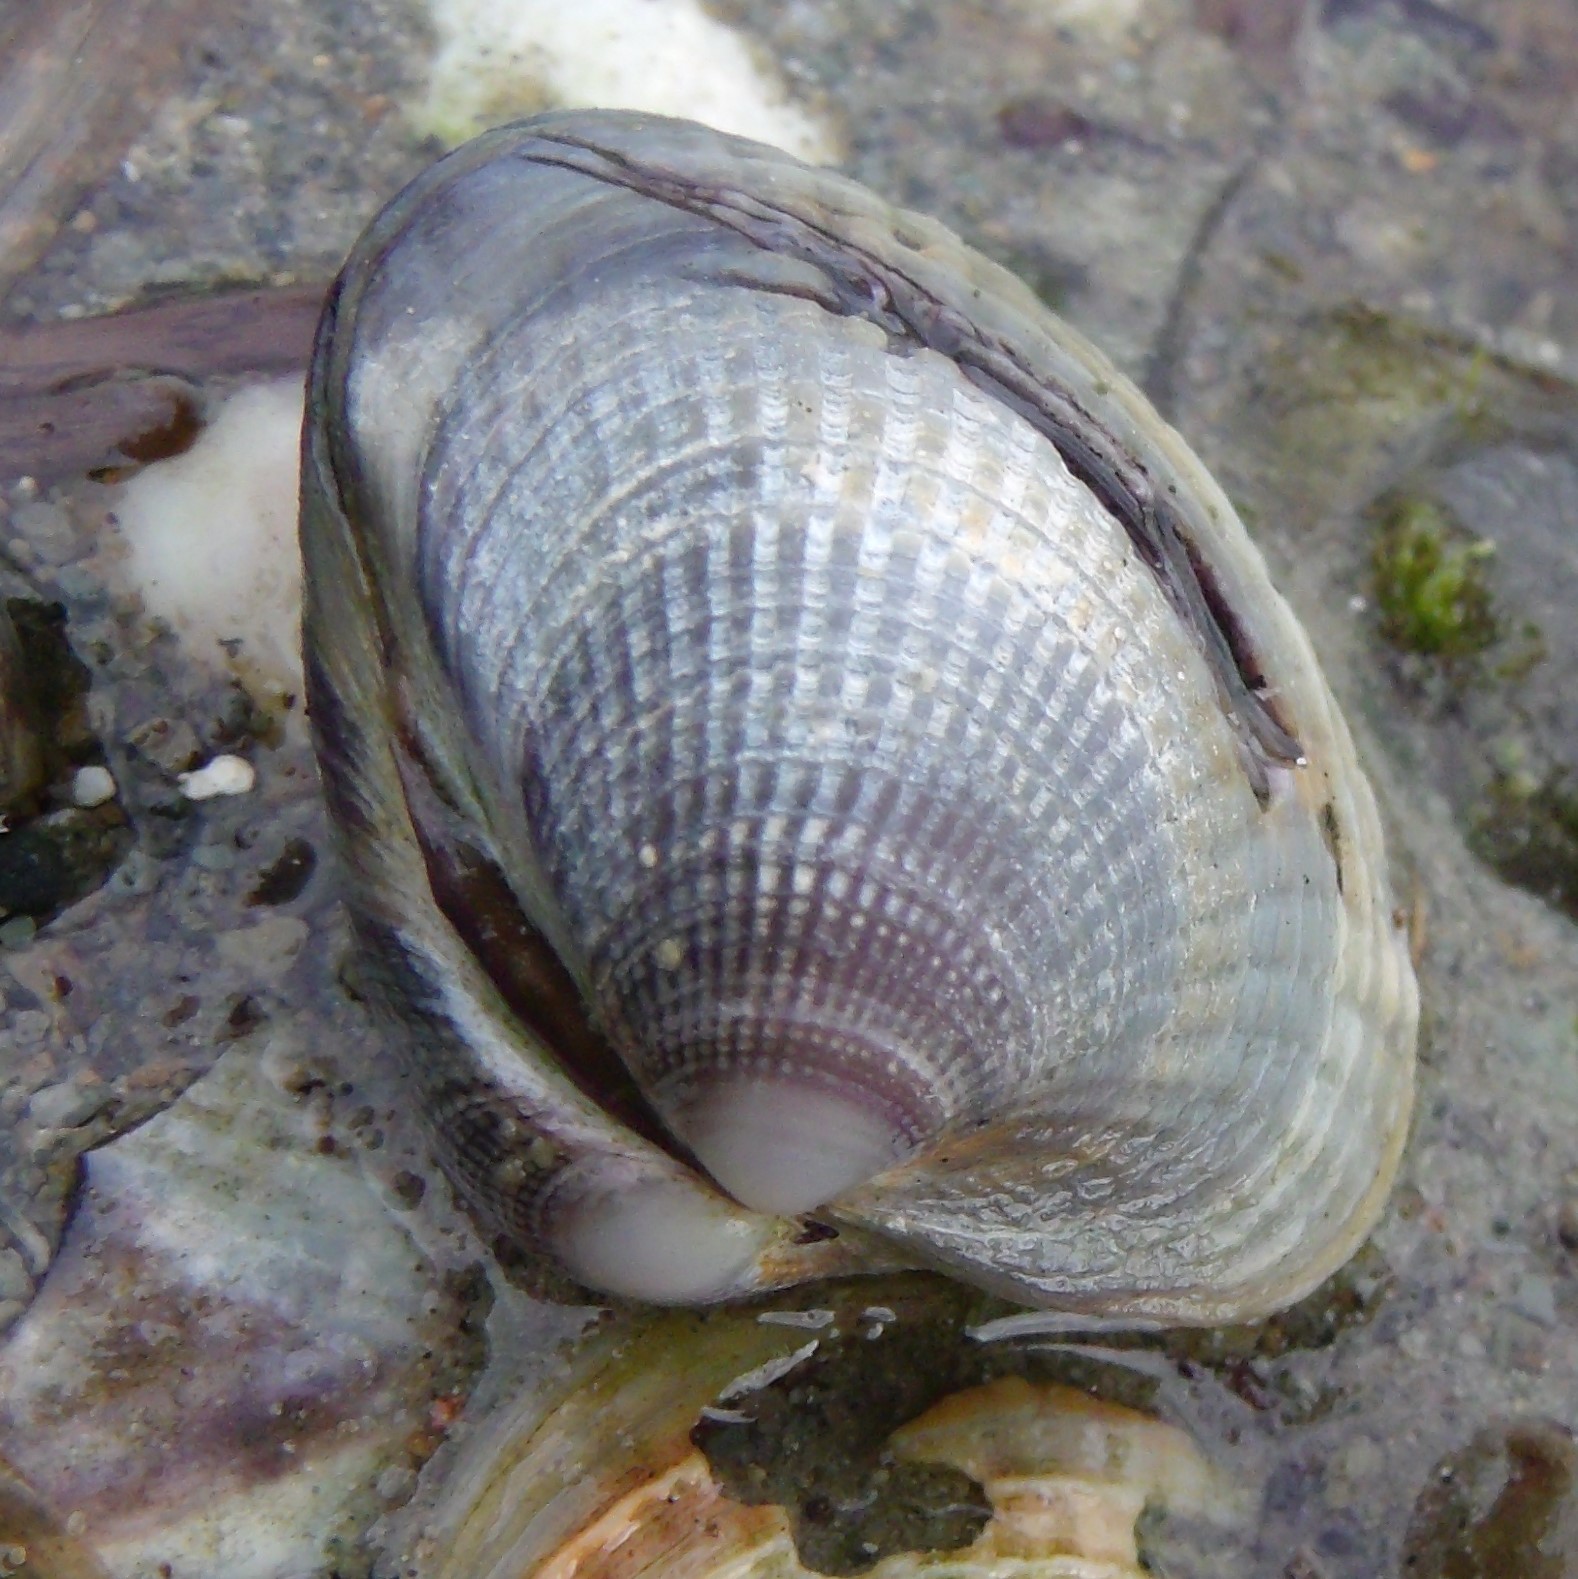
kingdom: Animalia
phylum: Mollusca
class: Bivalvia
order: Venerida
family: Veneridae
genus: Austrovenus
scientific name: Austrovenus stutchburyi
